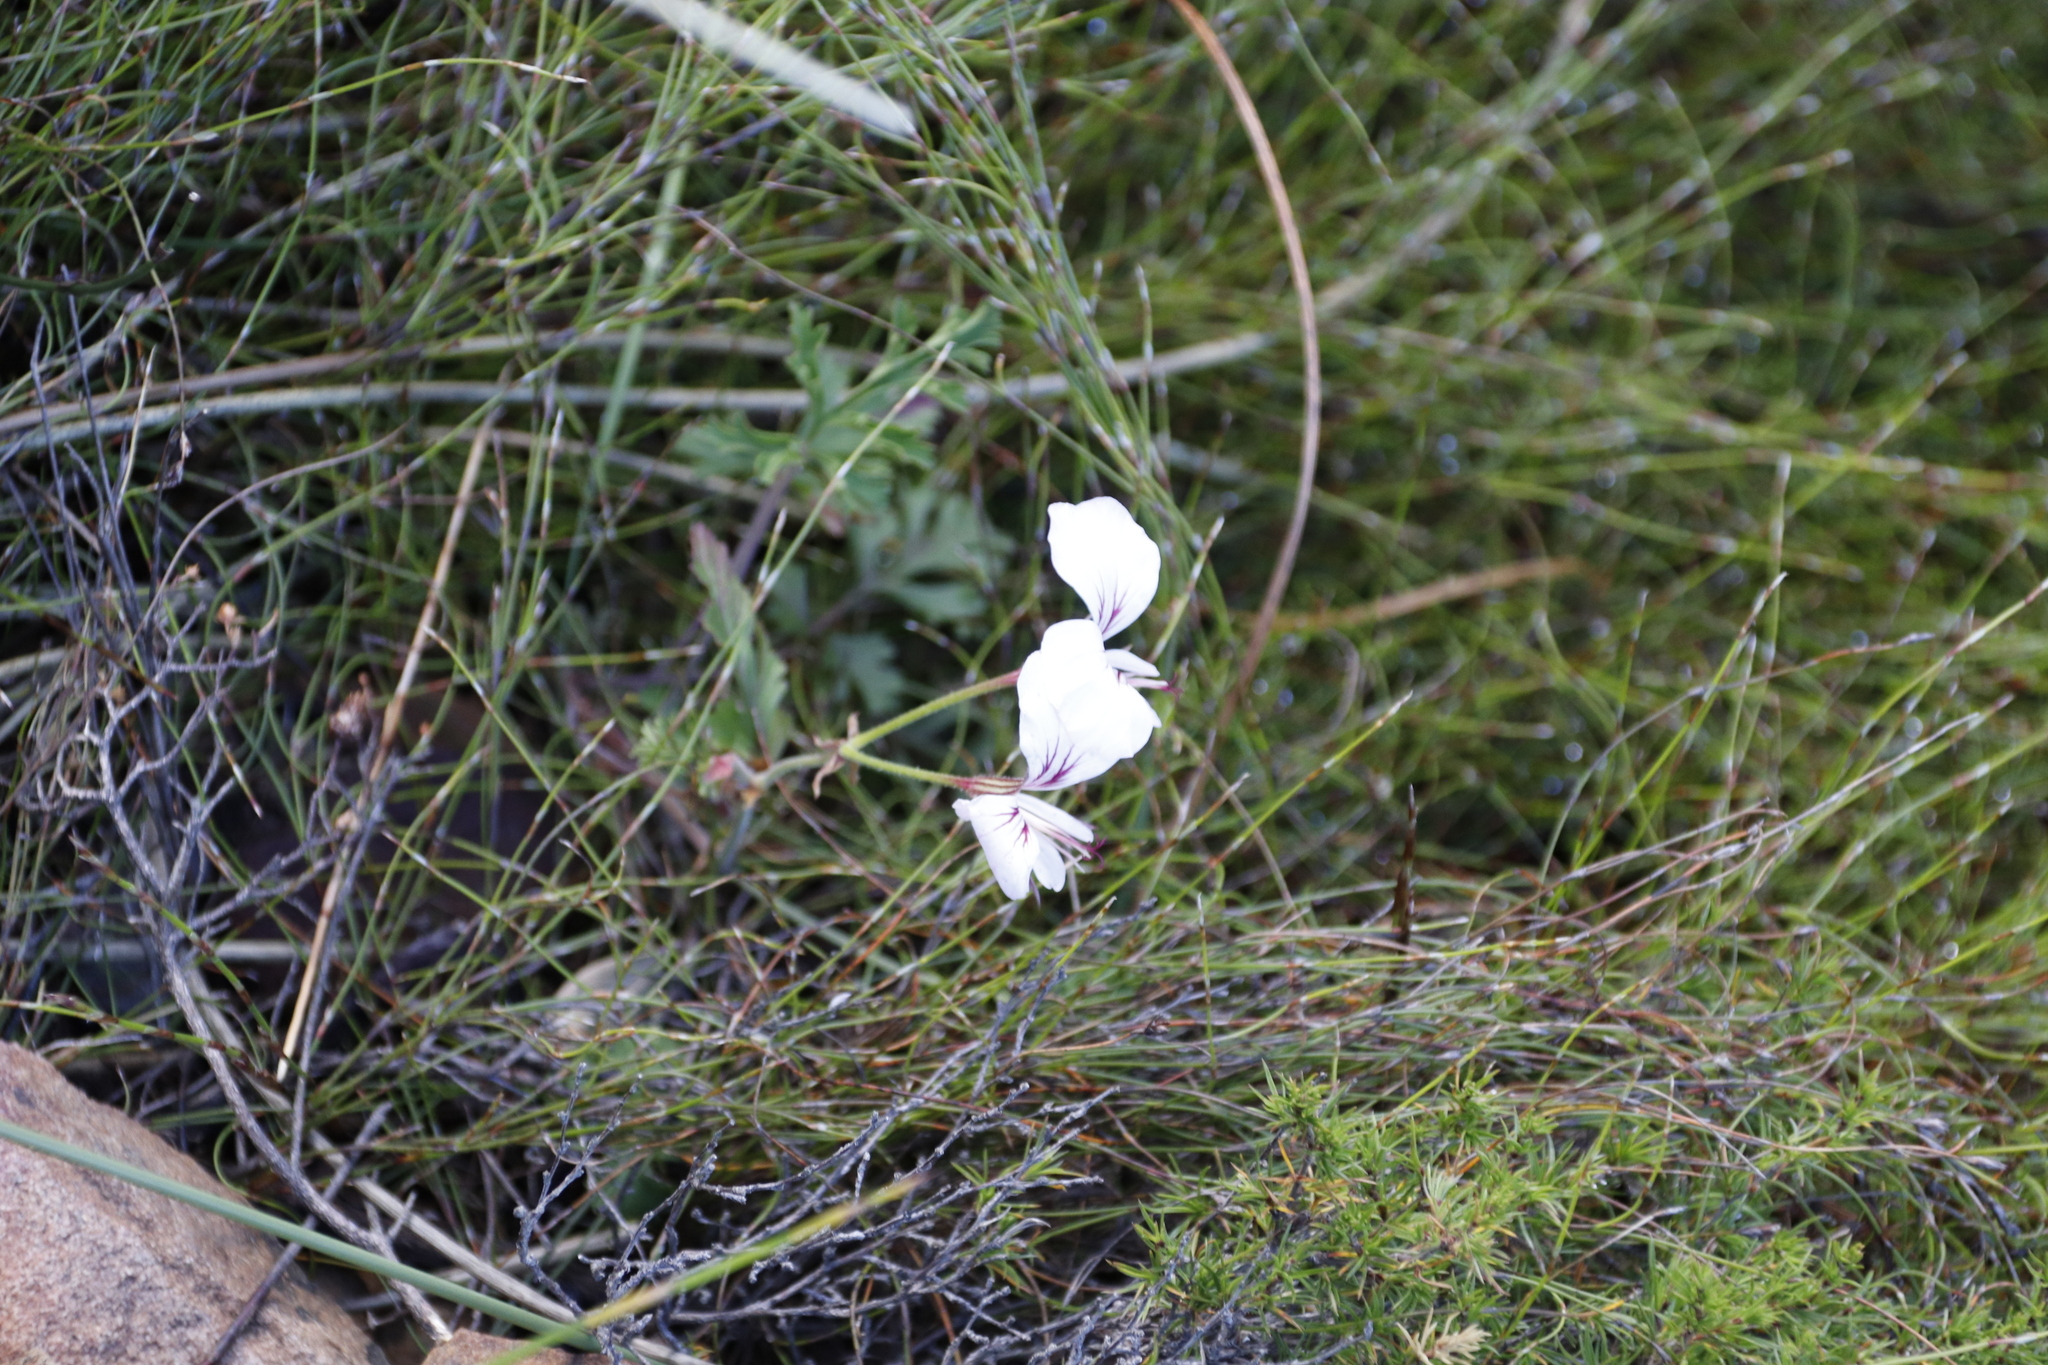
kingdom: Plantae
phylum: Tracheophyta
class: Magnoliopsida
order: Geraniales
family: Geraniaceae
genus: Pelargonium
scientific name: Pelargonium longicaule
